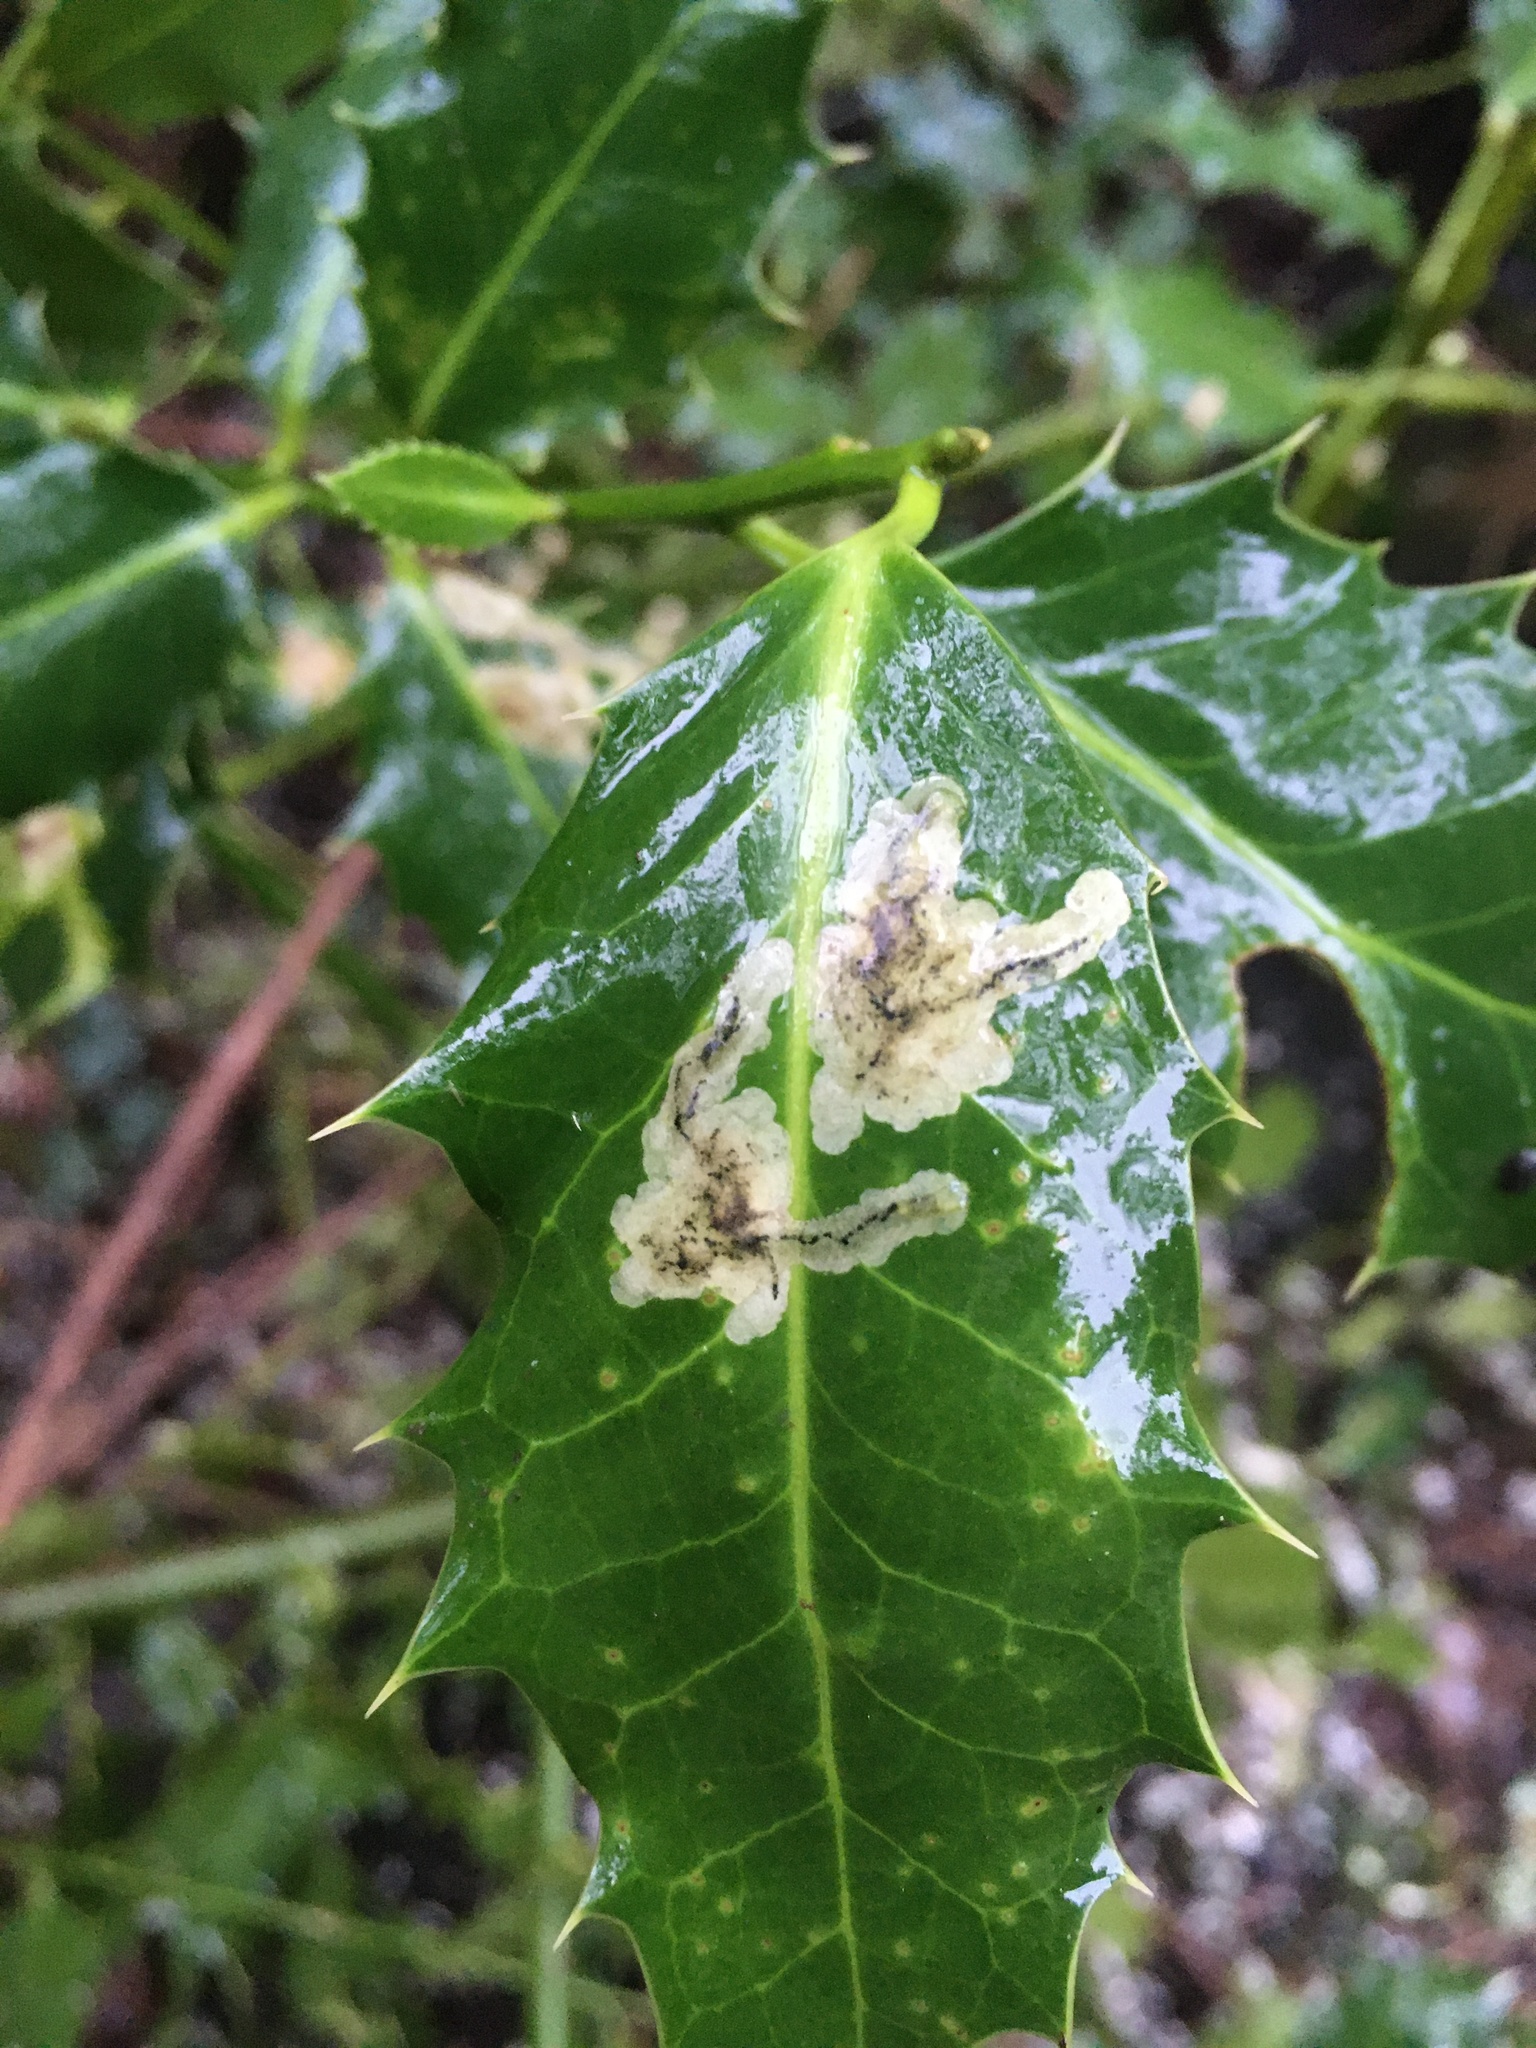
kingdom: Animalia
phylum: Arthropoda
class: Insecta
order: Diptera
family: Agromyzidae
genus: Phytomyza
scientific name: Phytomyza ilicis
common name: Holly leafminer
